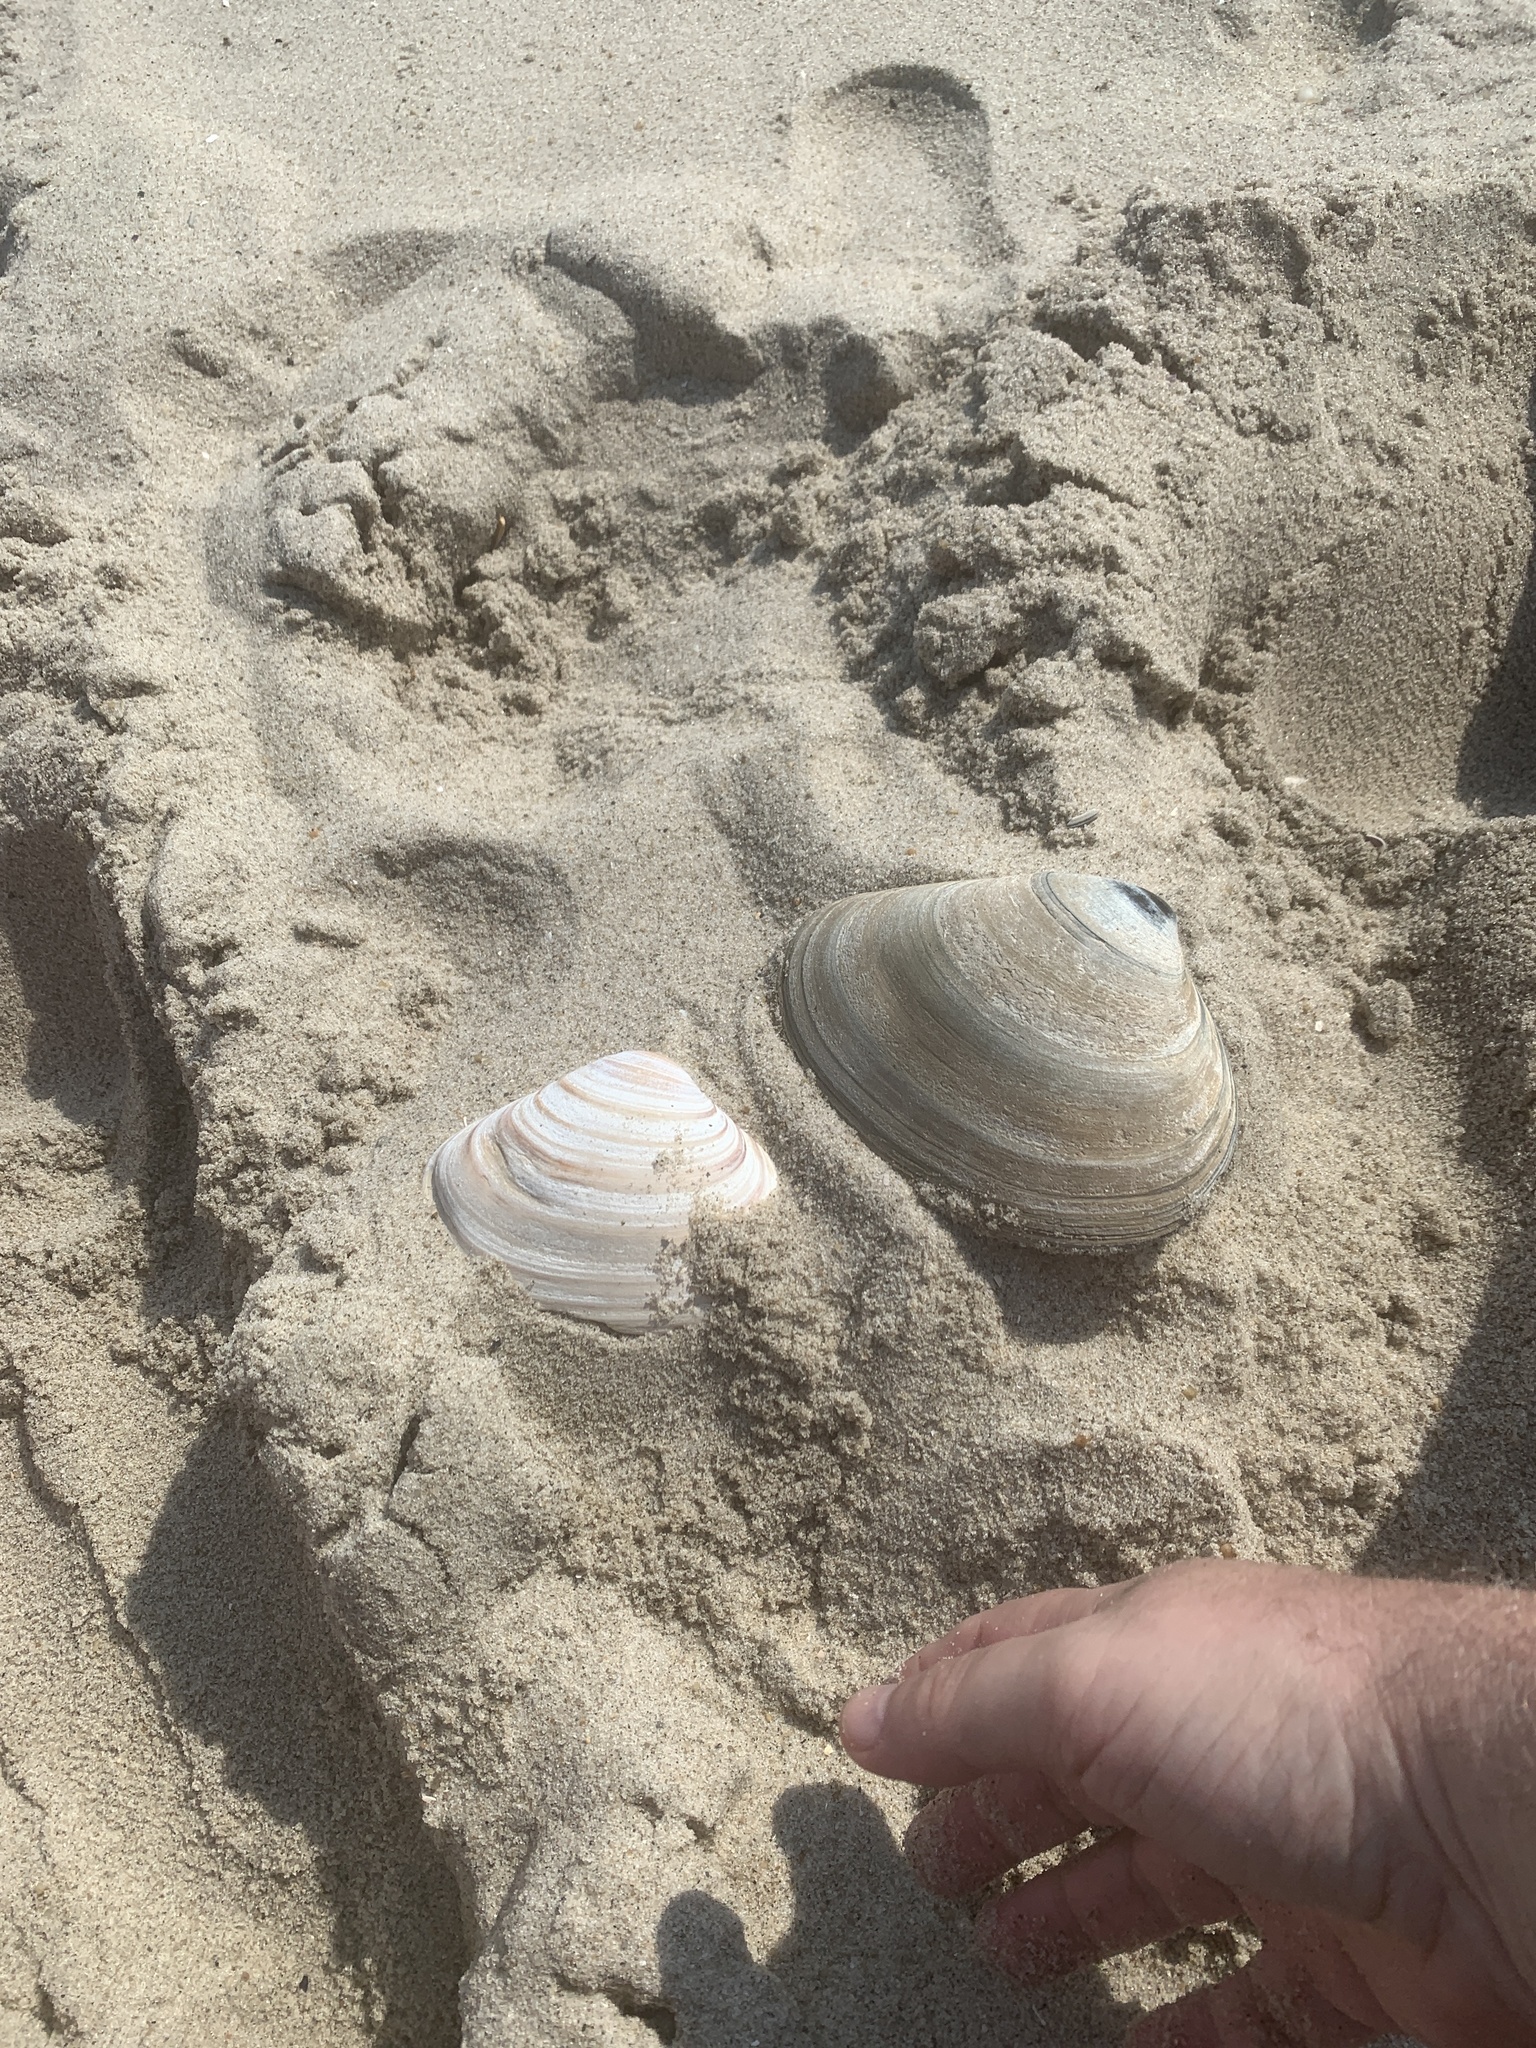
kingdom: Animalia
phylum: Mollusca
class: Bivalvia
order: Venerida
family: Mactridae
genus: Spisula
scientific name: Spisula solidissima
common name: Atlantic surf clam
